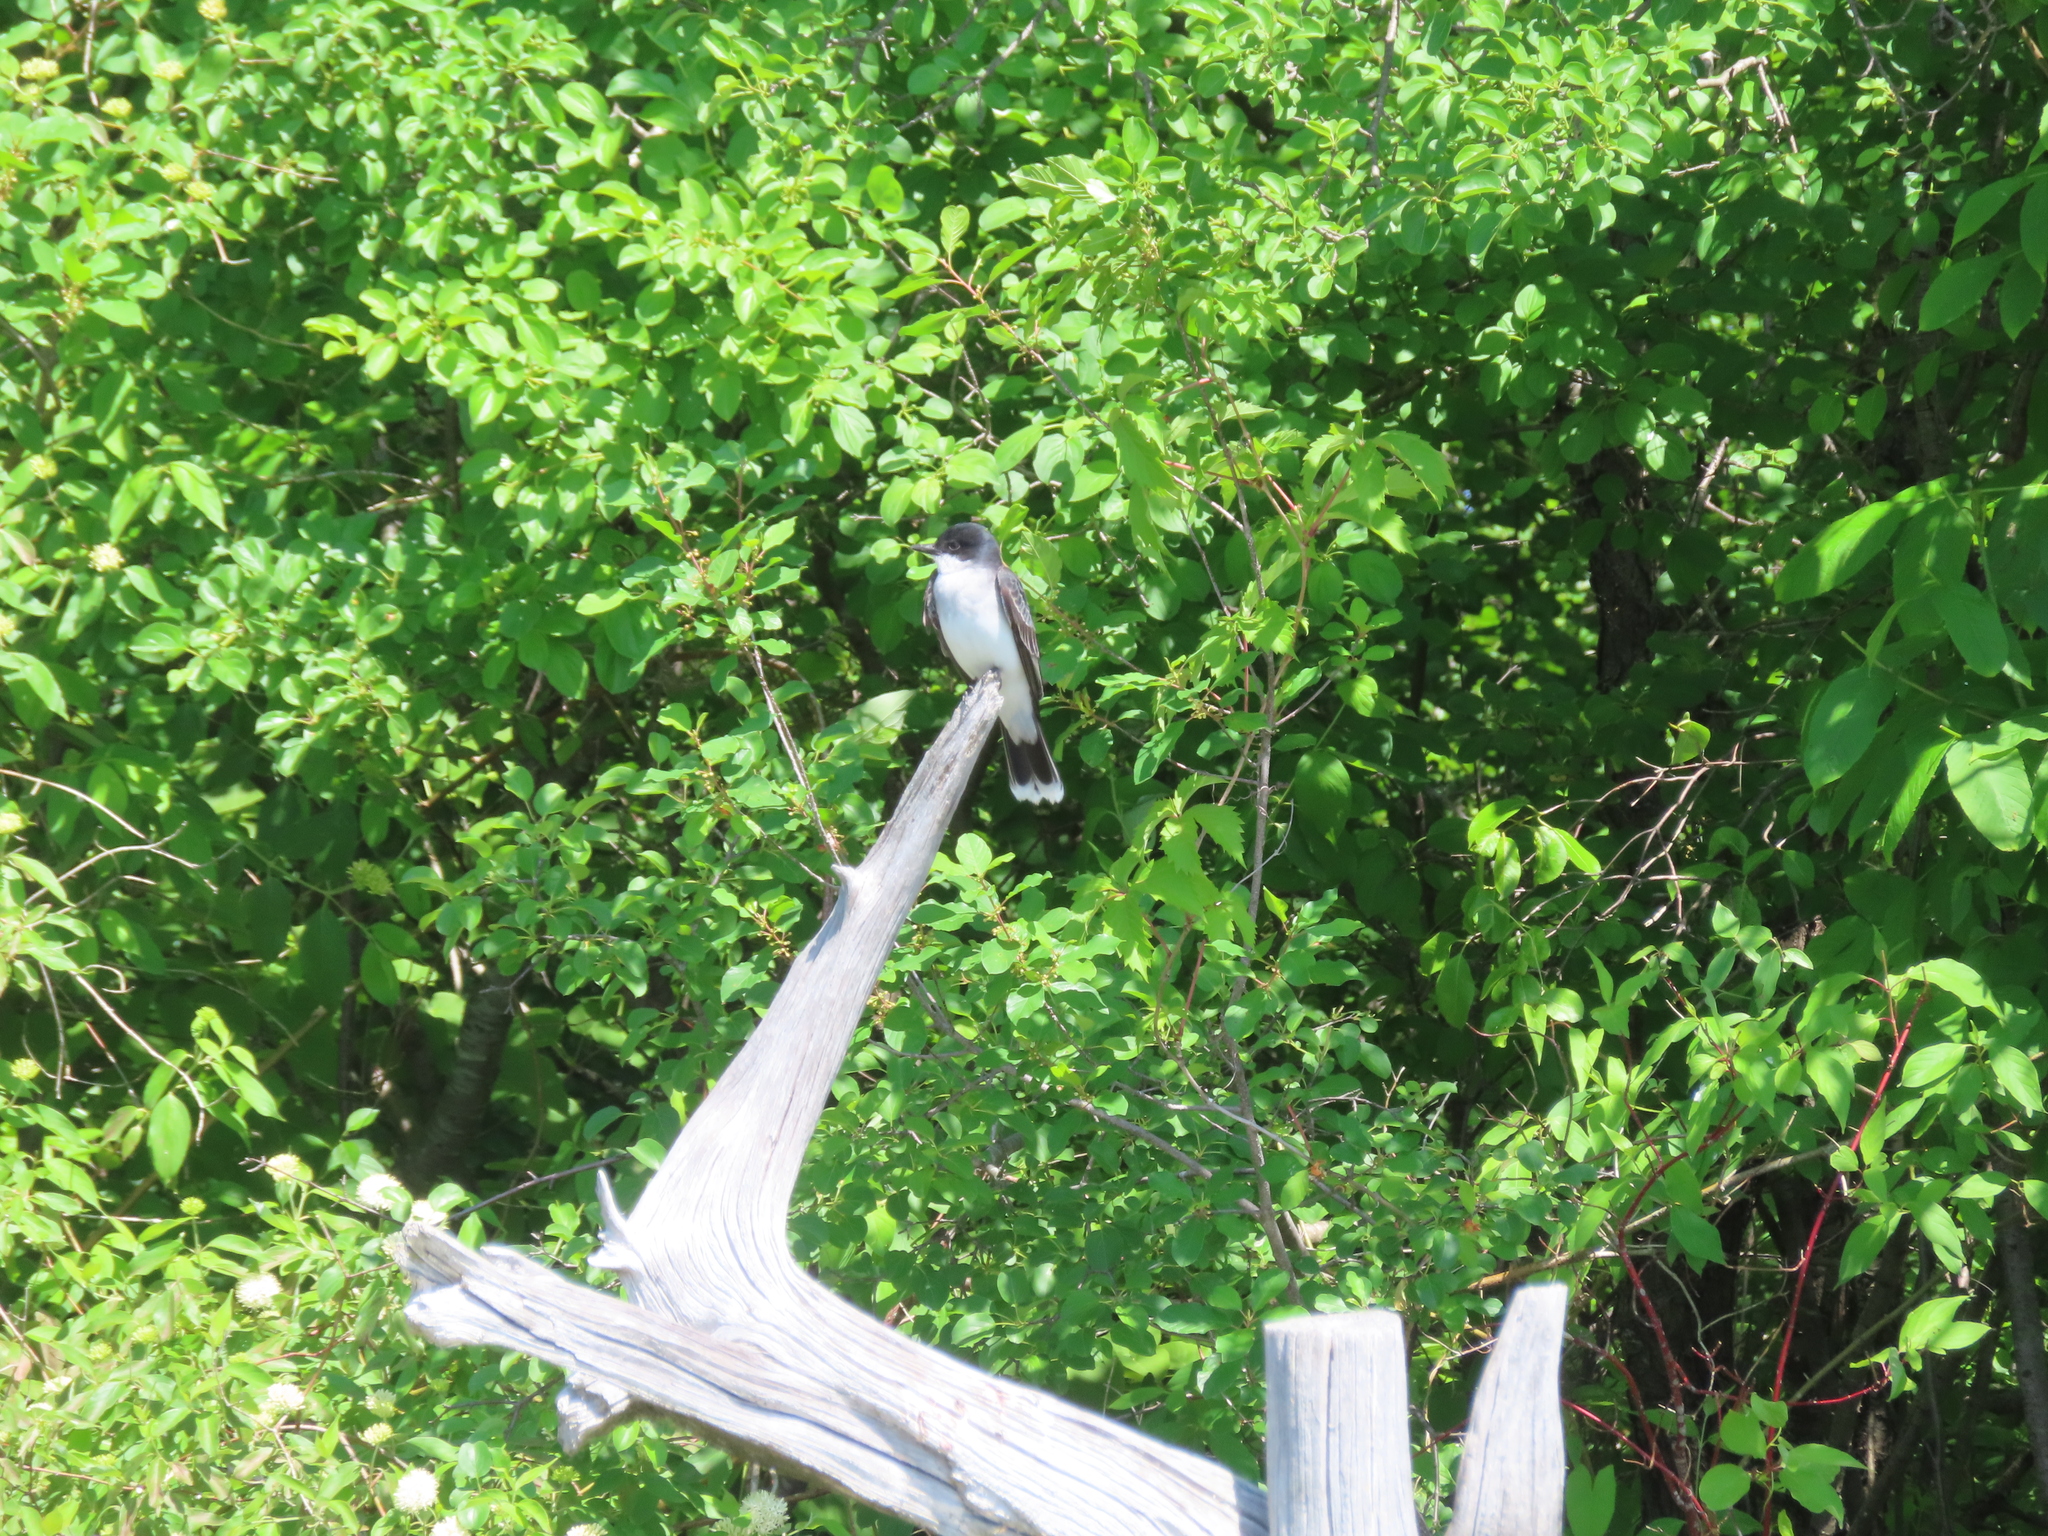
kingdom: Animalia
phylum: Chordata
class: Aves
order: Passeriformes
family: Tyrannidae
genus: Tyrannus
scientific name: Tyrannus tyrannus
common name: Eastern kingbird
